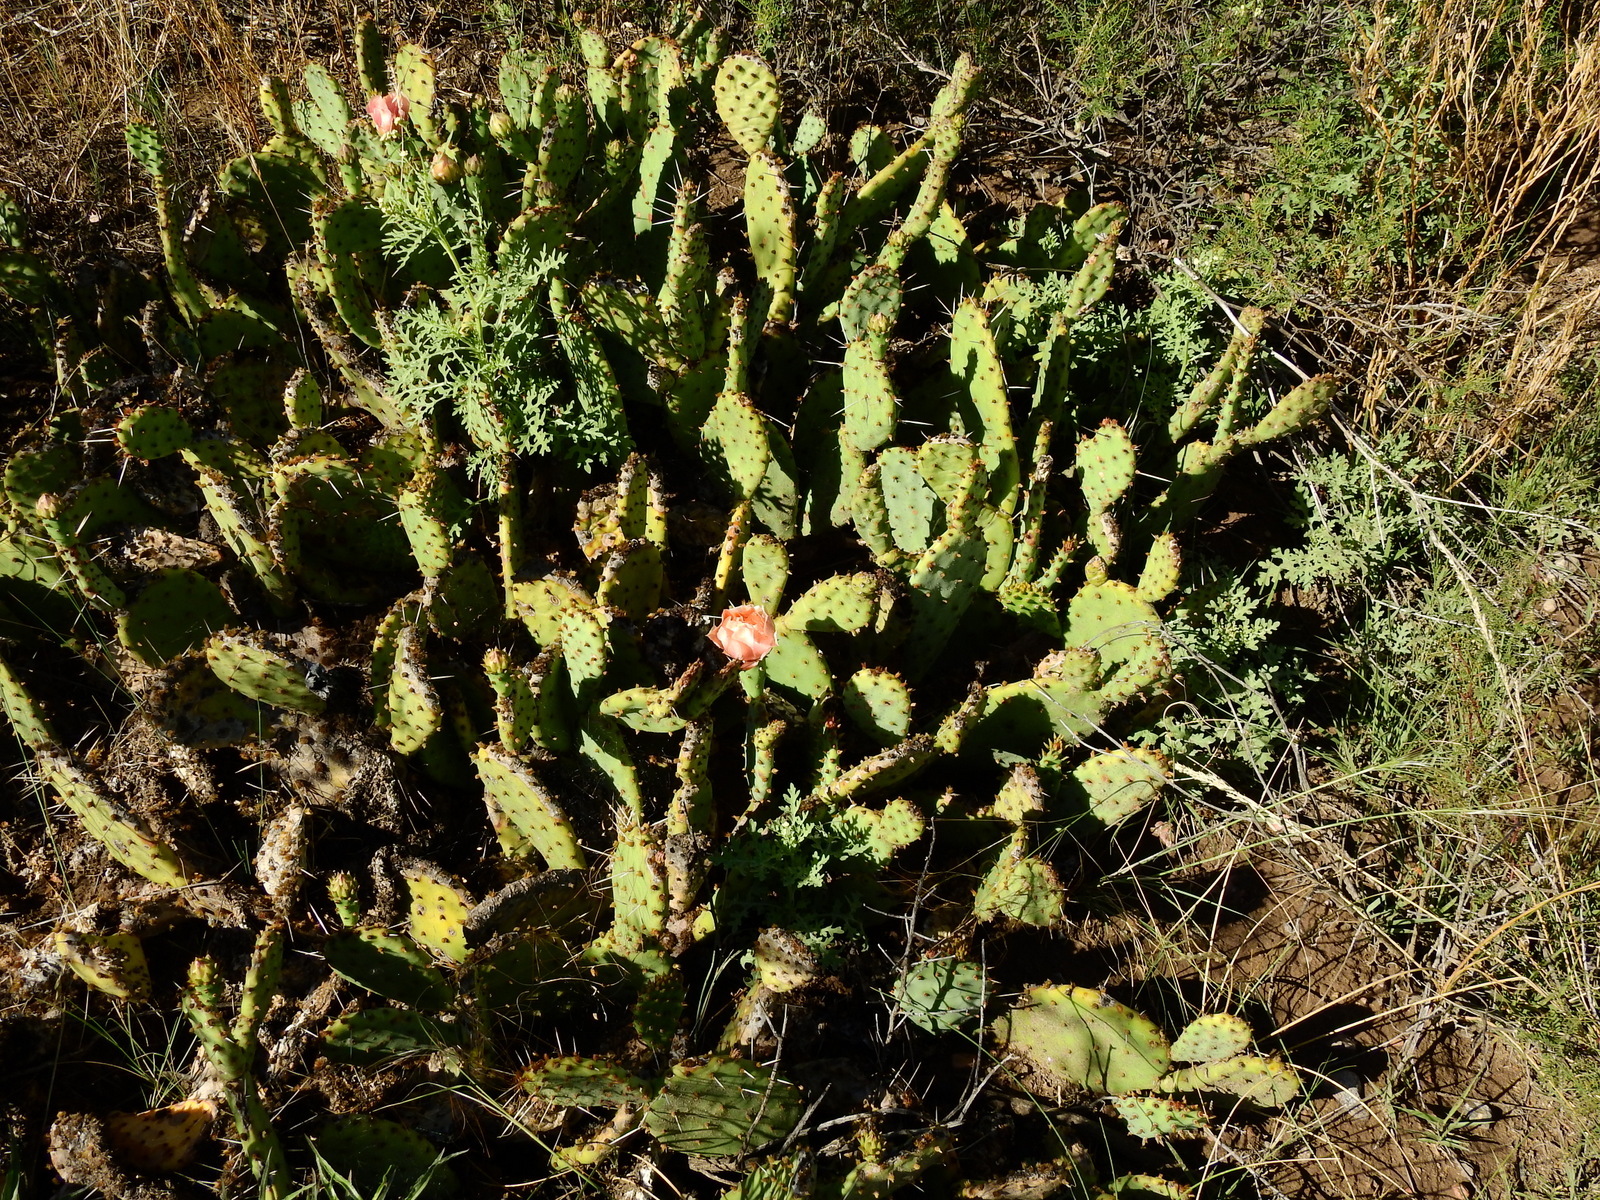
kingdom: Plantae
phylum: Tracheophyta
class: Magnoliopsida
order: Caryophyllales
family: Cactaceae
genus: Opuntia
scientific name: Opuntia penicilligera
